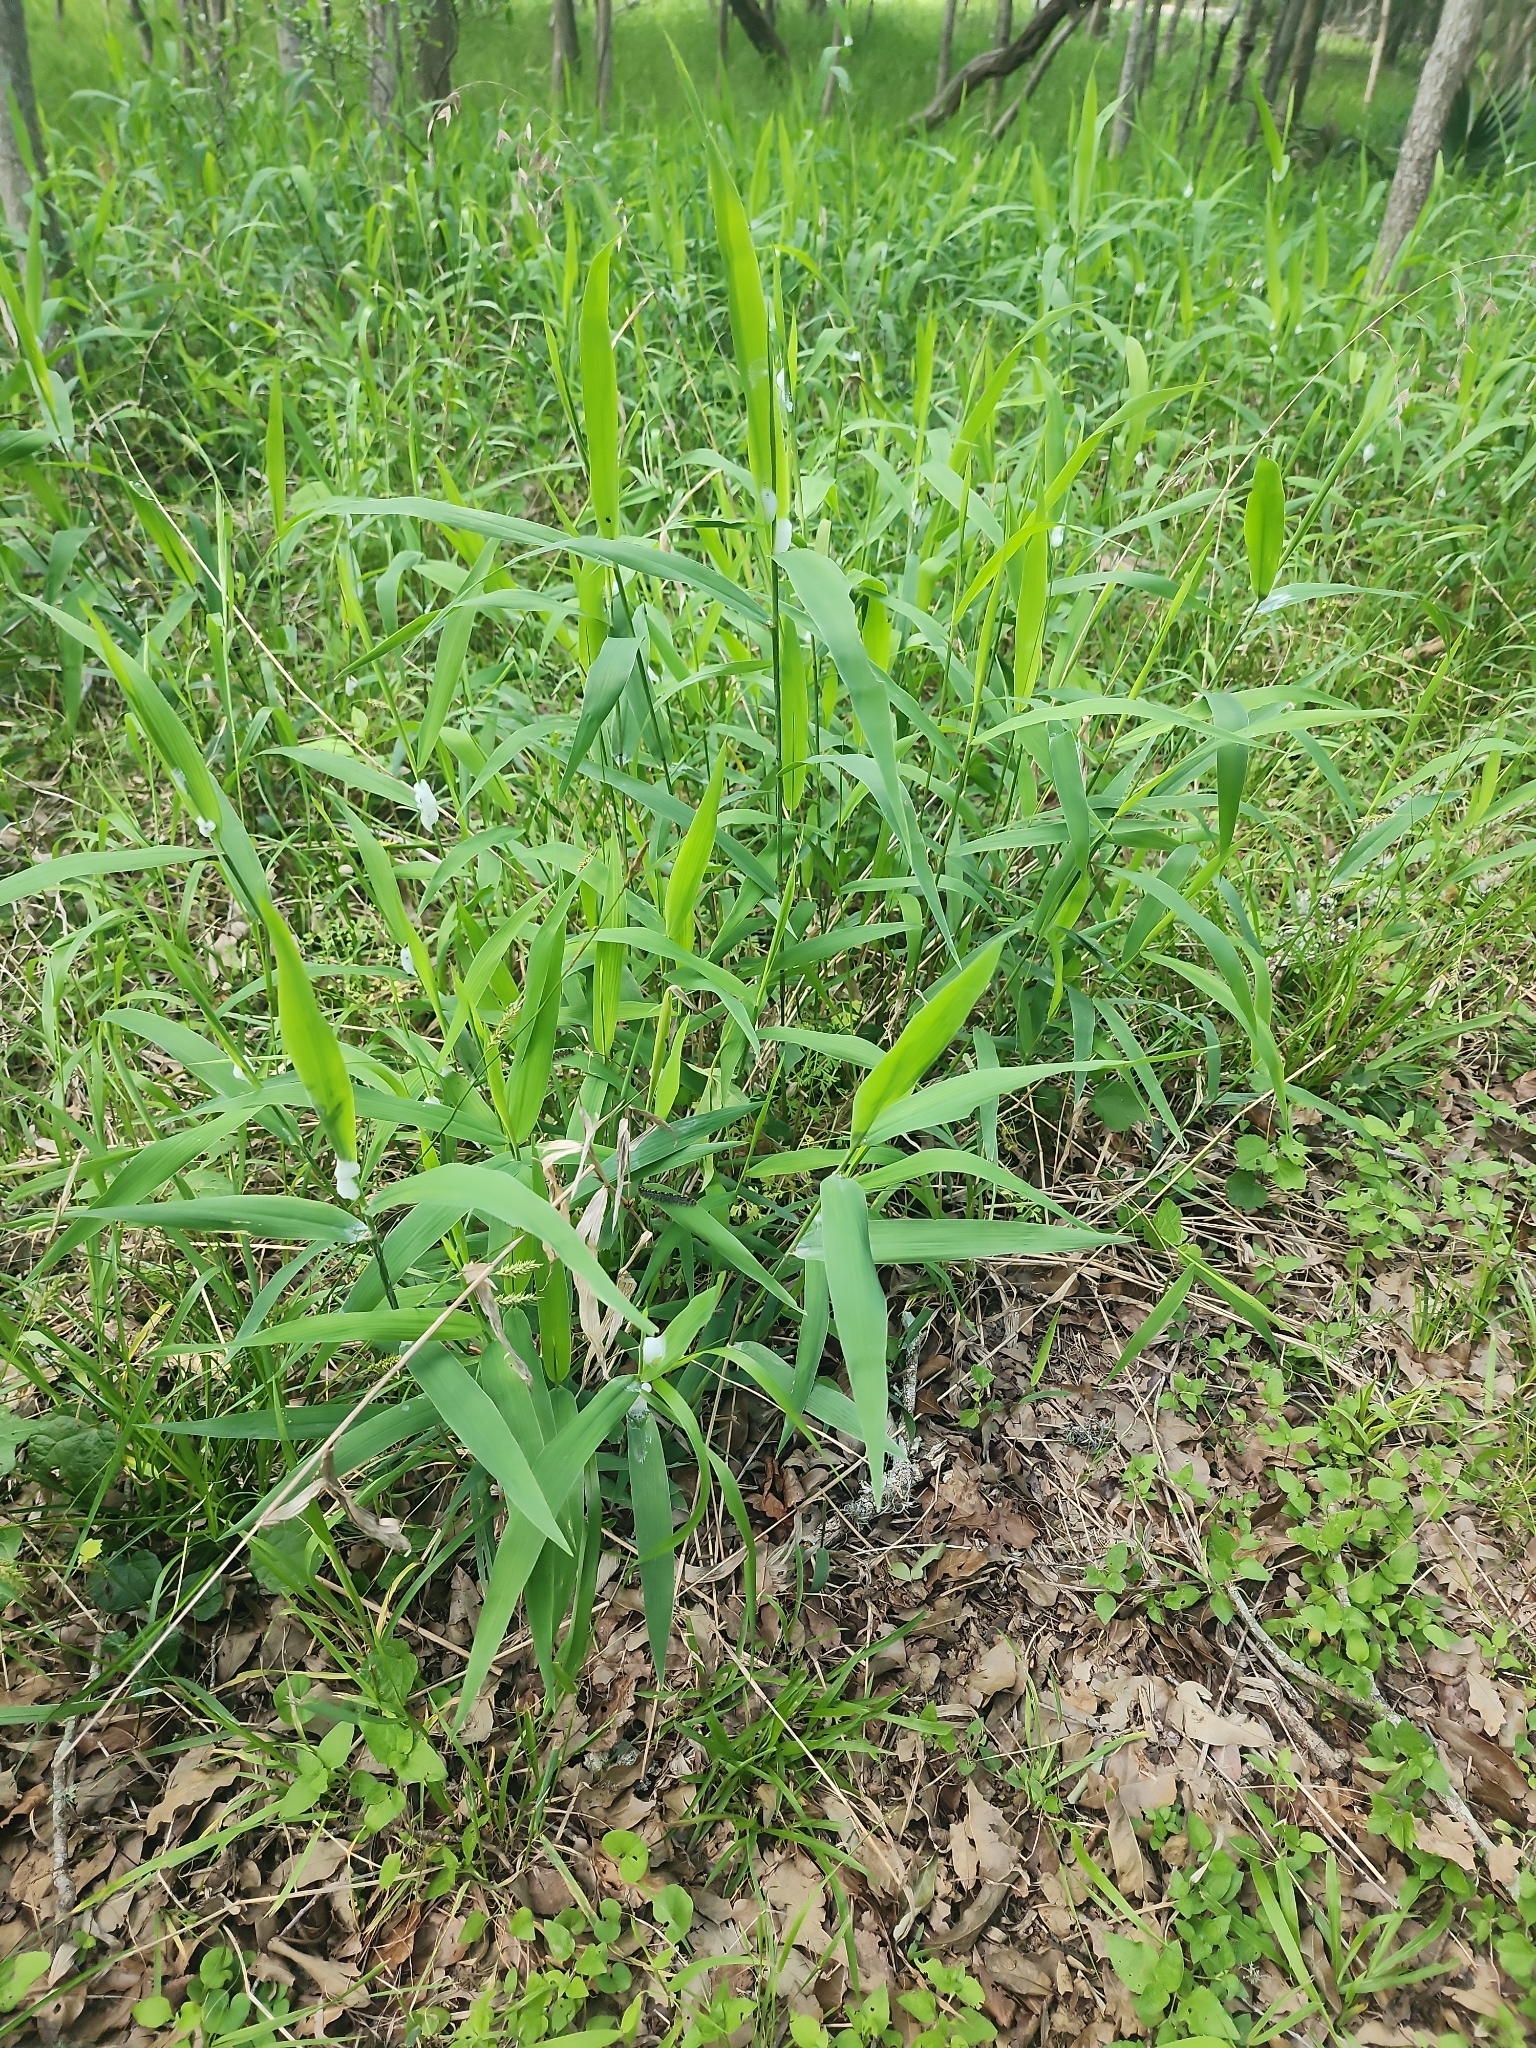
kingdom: Plantae
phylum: Tracheophyta
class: Liliopsida
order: Poales
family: Poaceae
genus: Chasmanthium
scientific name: Chasmanthium latifolium
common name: Broad-leaved chasmanthium
